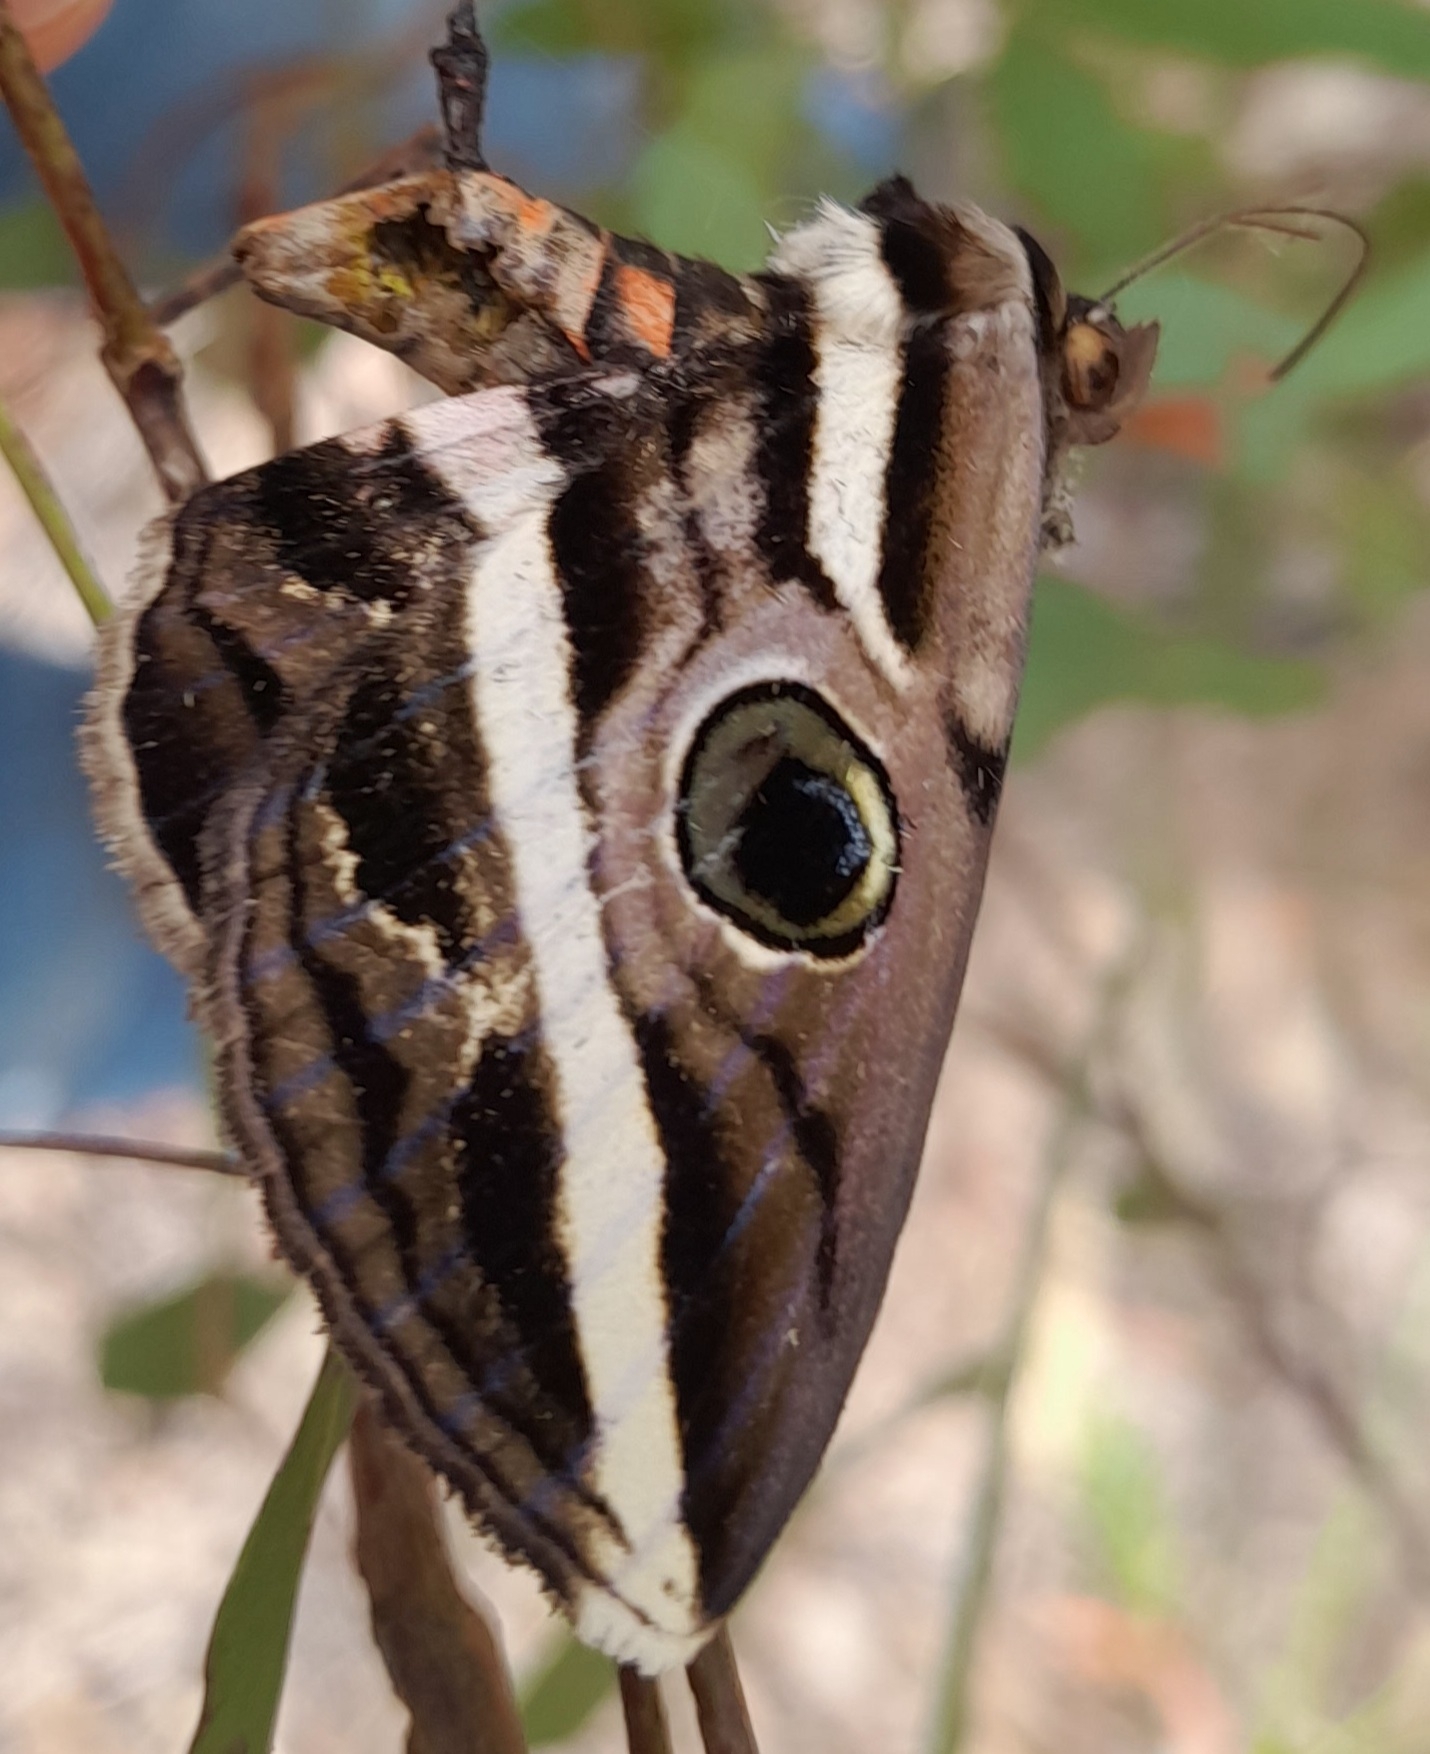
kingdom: Animalia
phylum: Arthropoda
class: Insecta
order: Lepidoptera
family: Erebidae
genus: Donuca
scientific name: Donuca rubropicta
